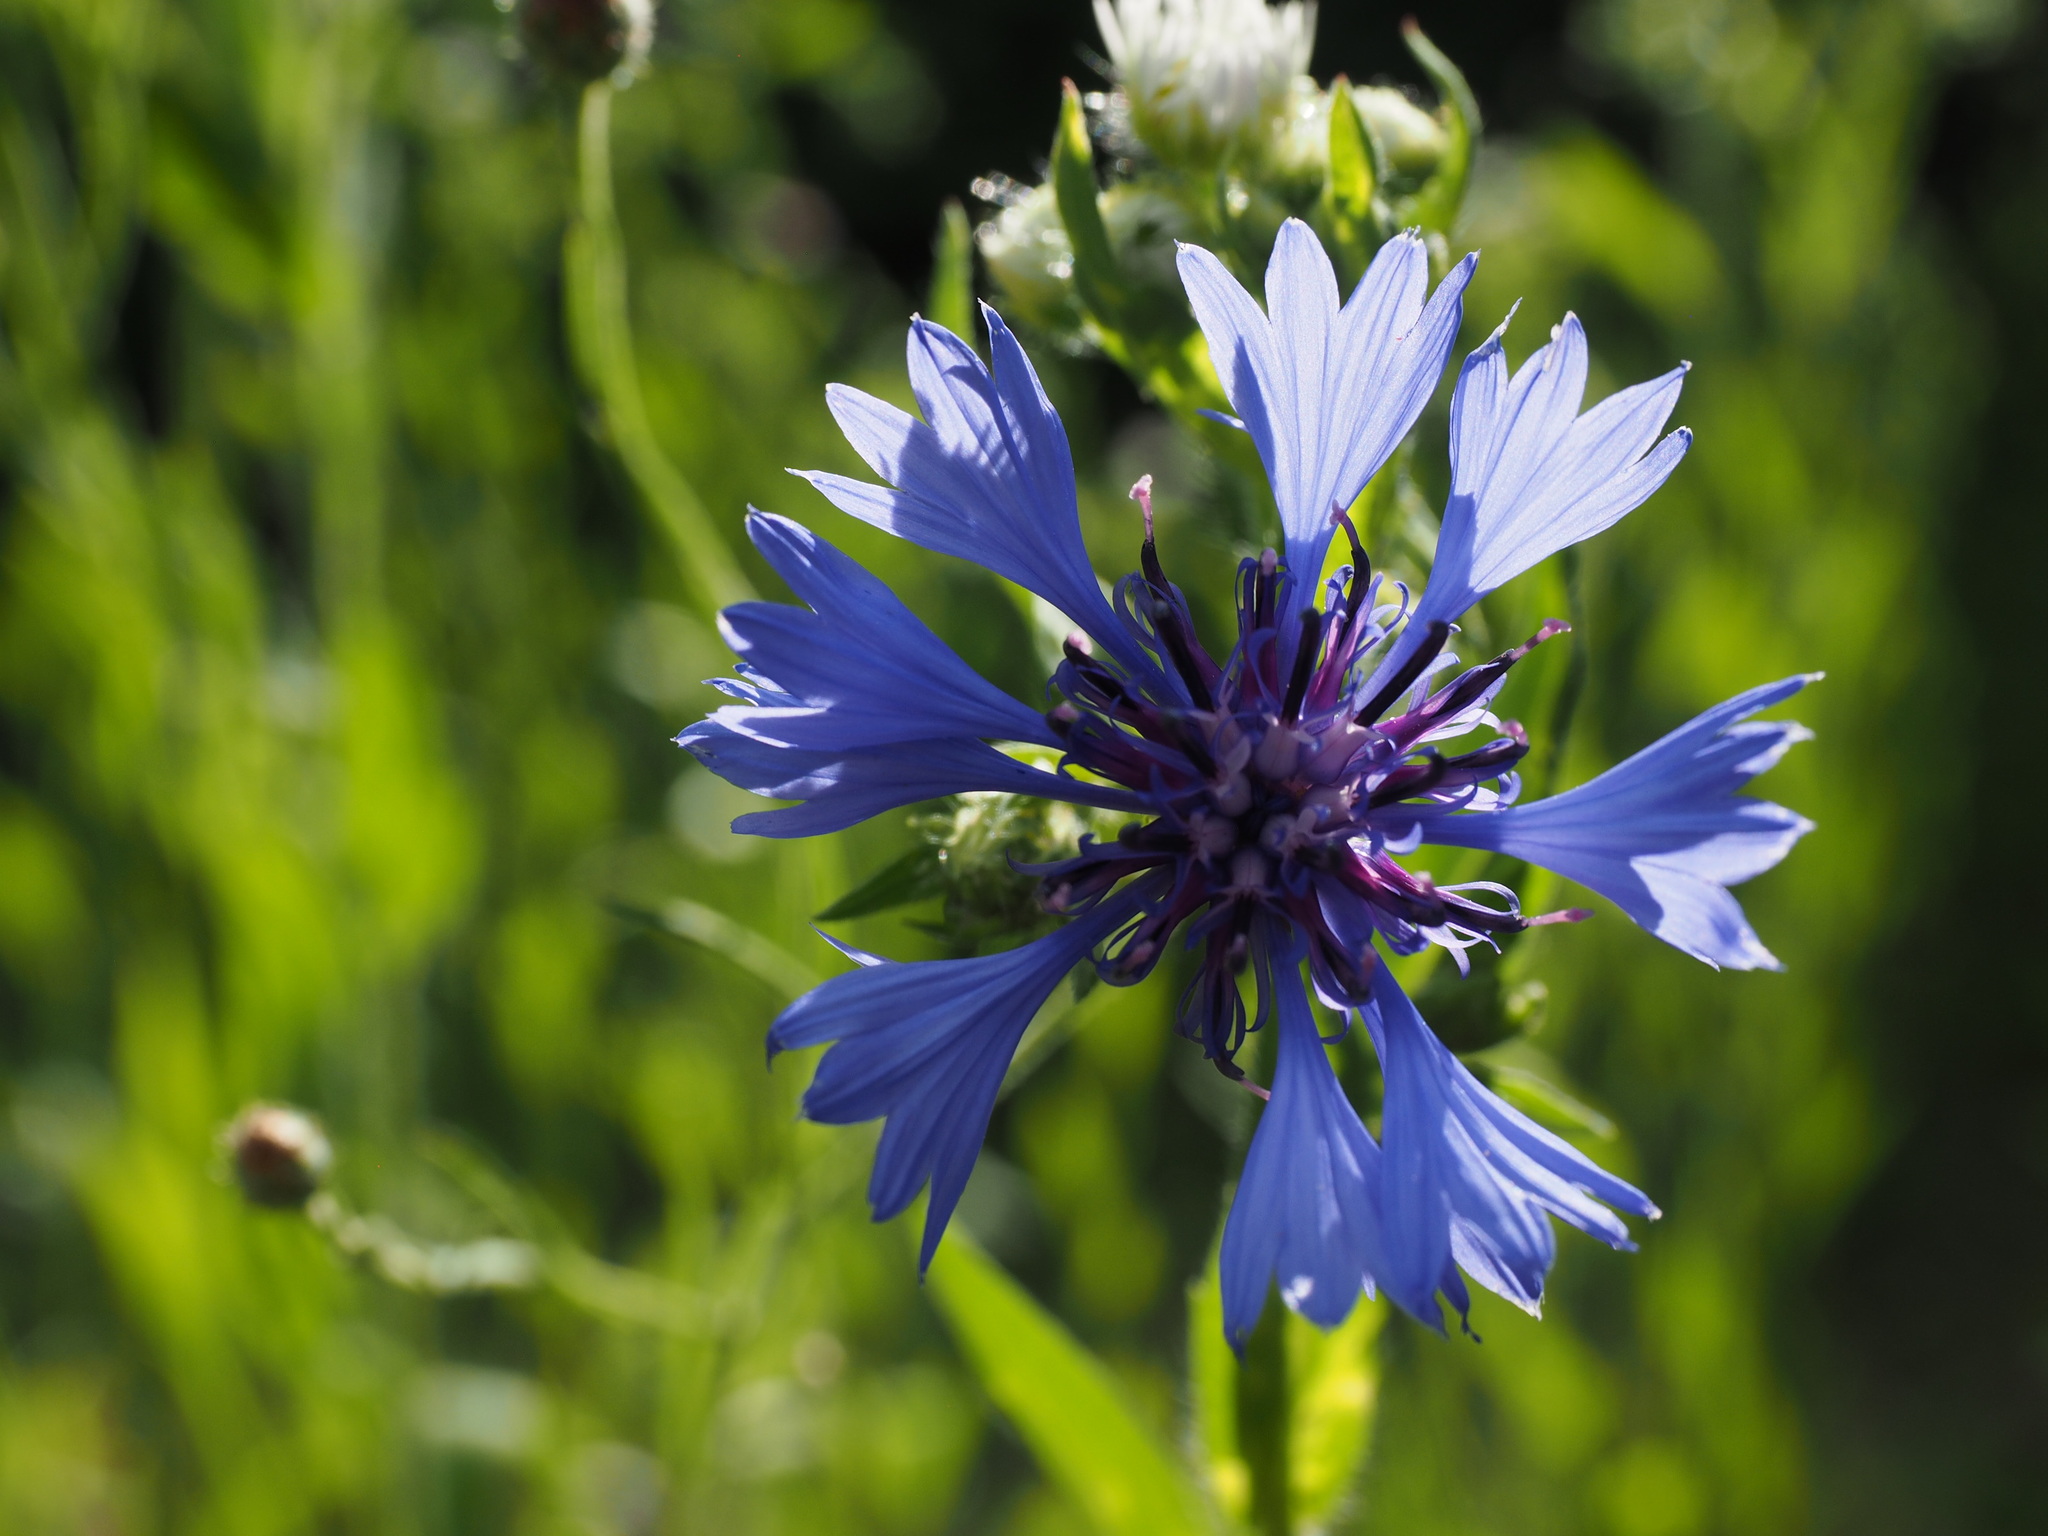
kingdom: Plantae
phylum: Tracheophyta
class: Magnoliopsida
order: Asterales
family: Asteraceae
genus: Centaurea
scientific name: Centaurea cyanus
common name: Cornflower
